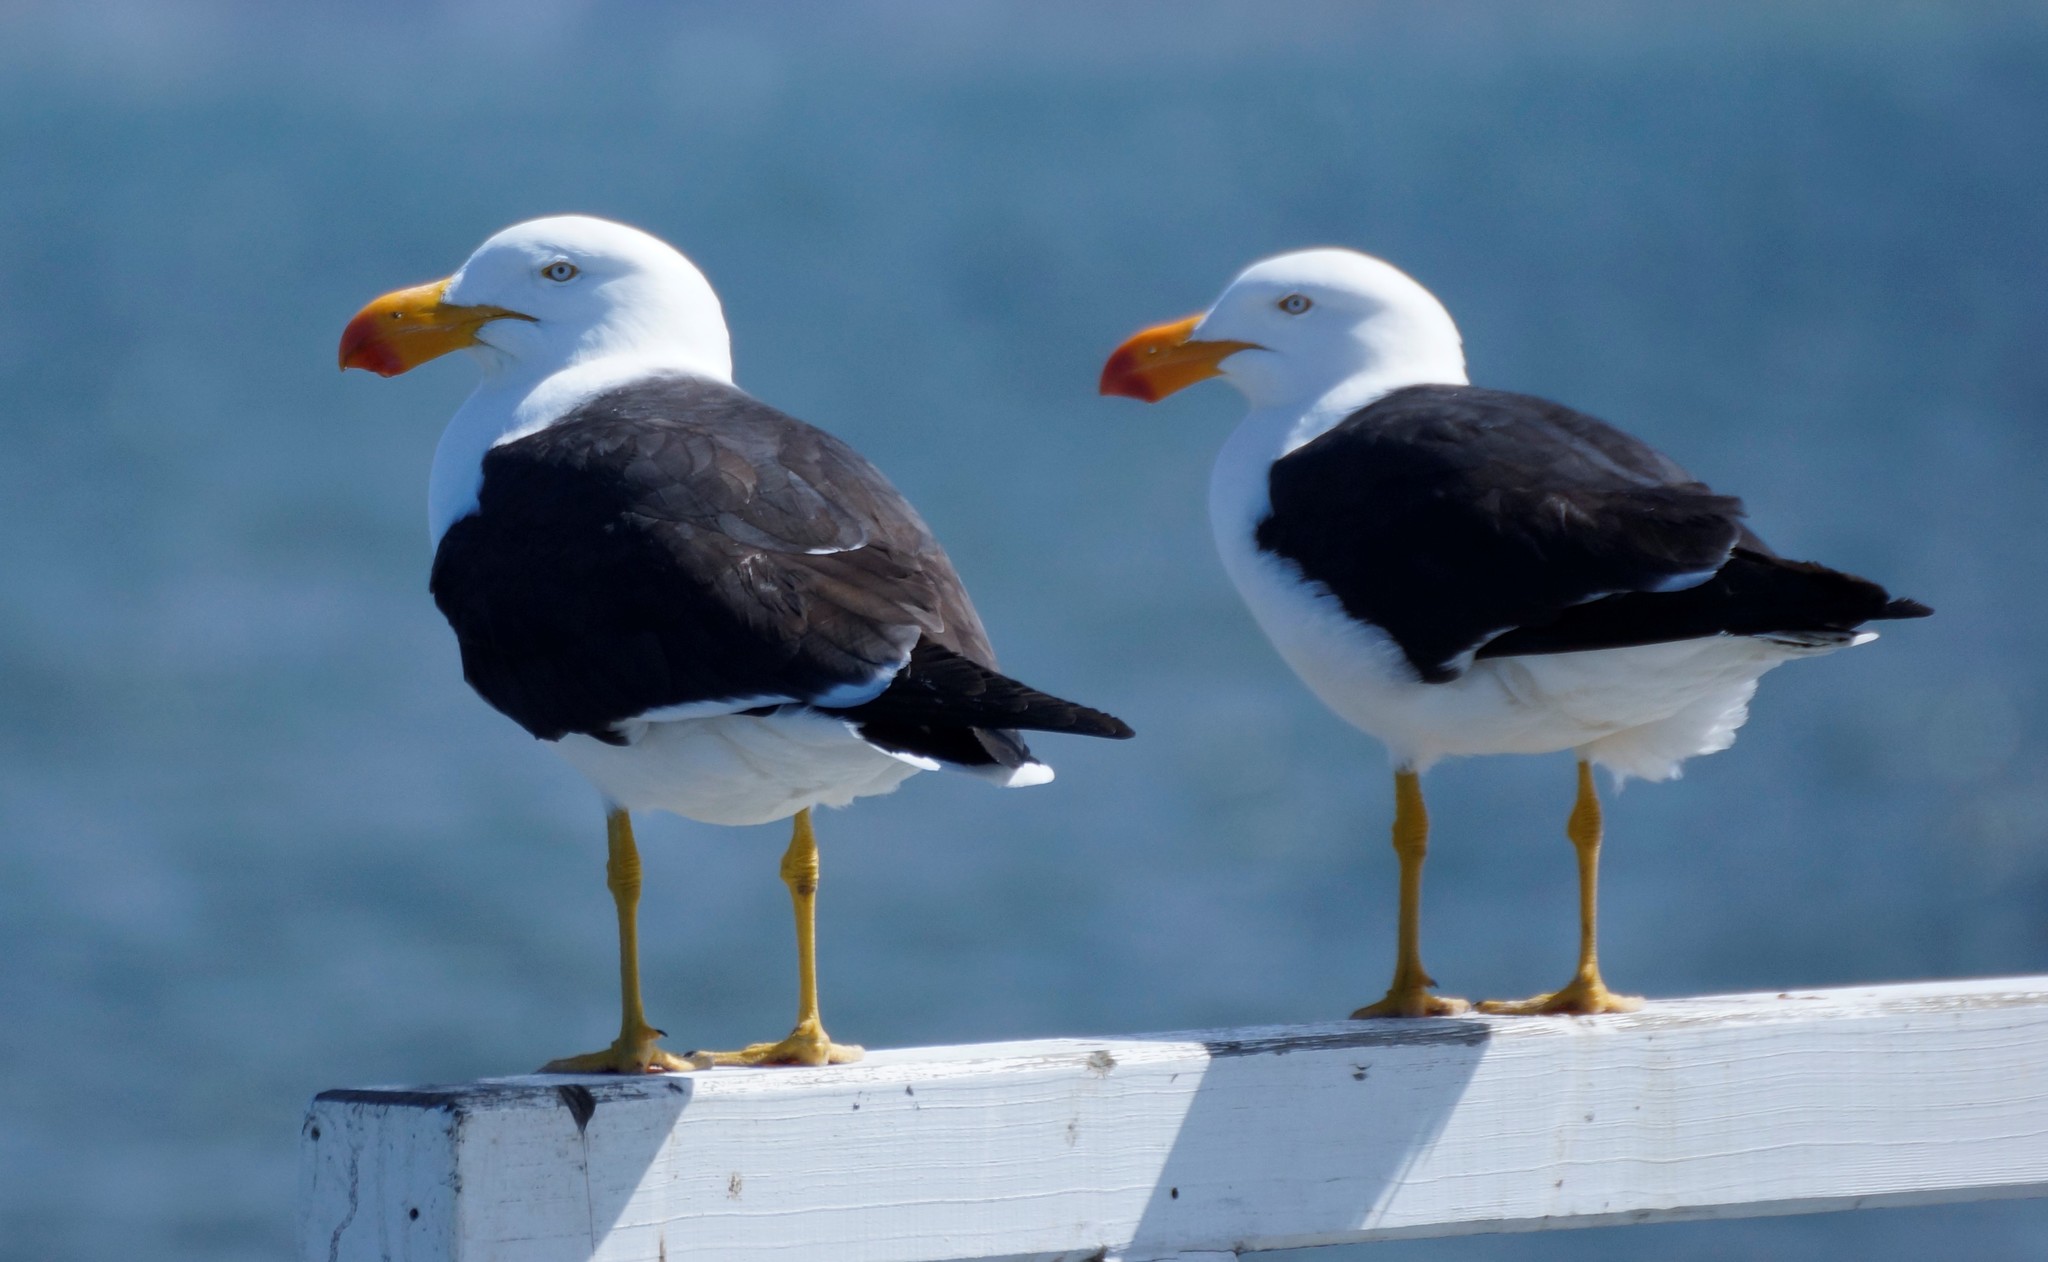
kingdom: Animalia
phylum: Chordata
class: Aves
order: Charadriiformes
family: Laridae
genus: Larus
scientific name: Larus pacificus
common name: Pacific gull
